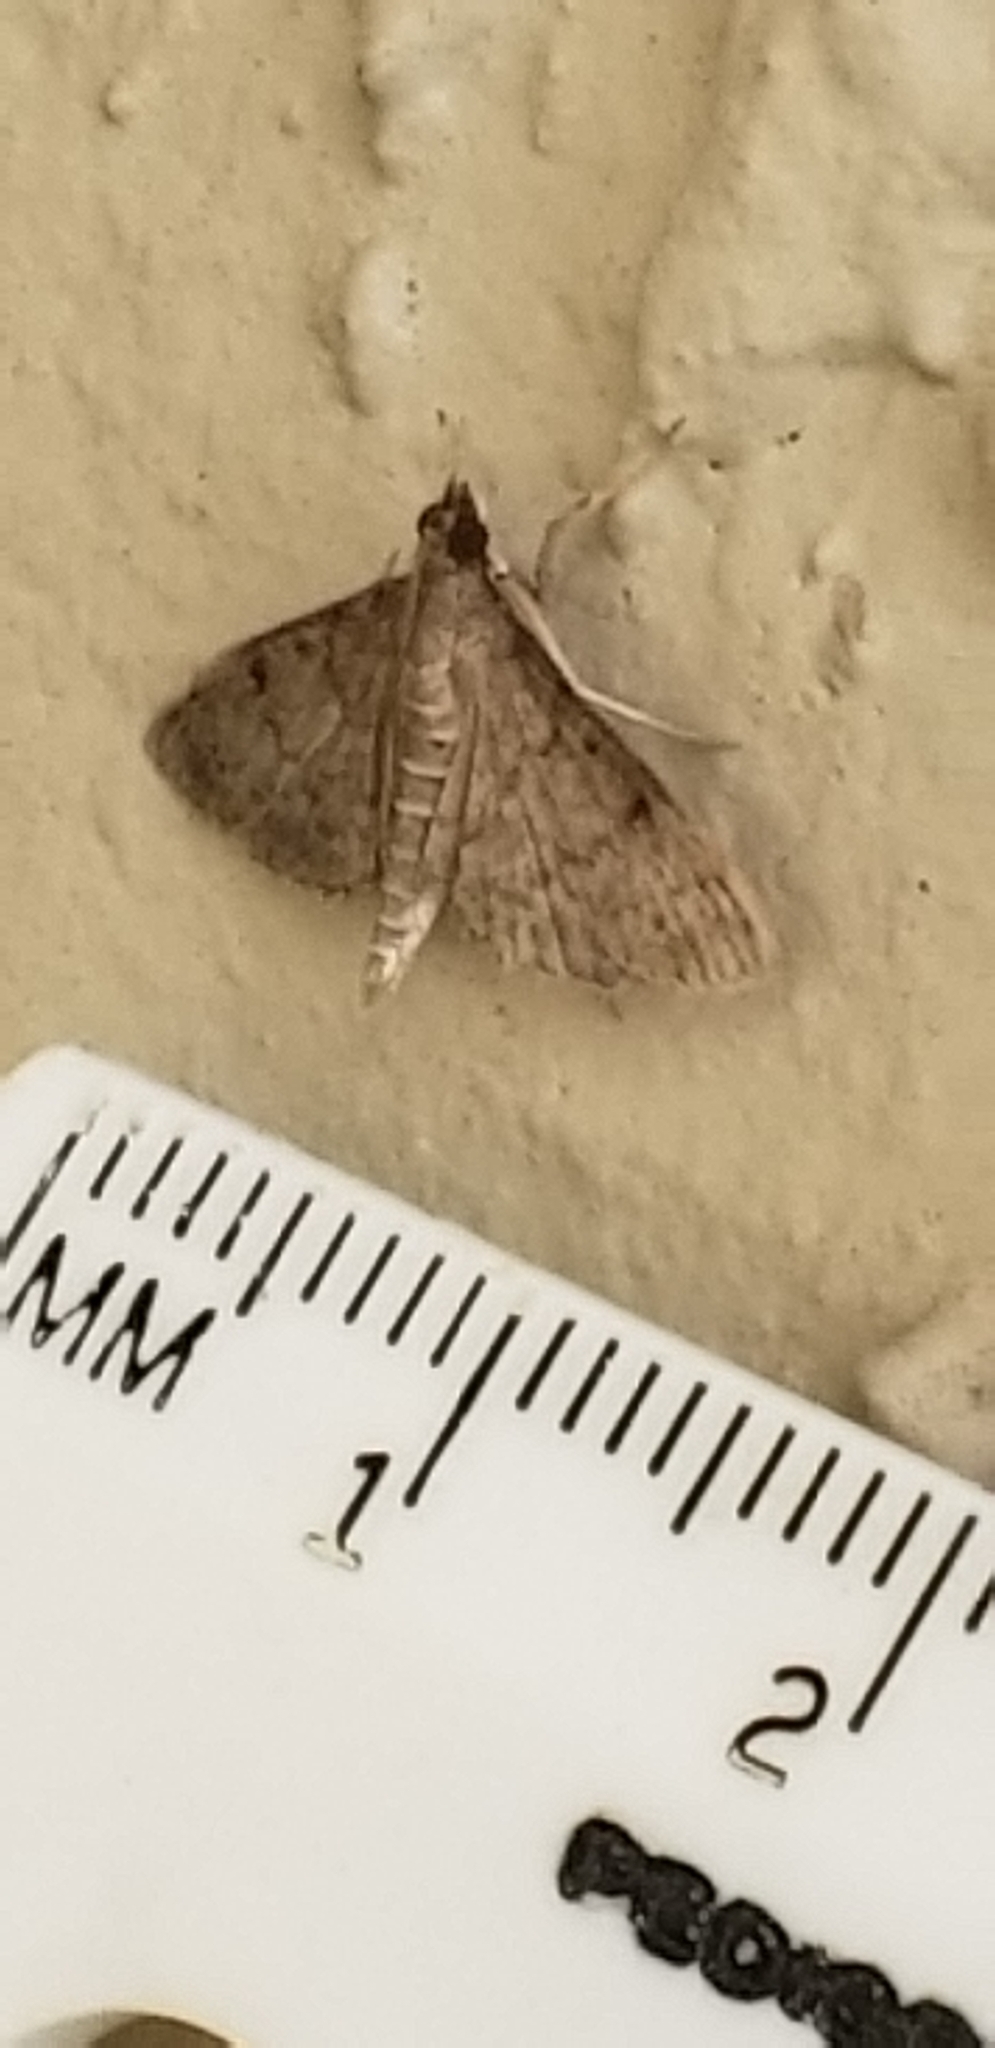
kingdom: Animalia
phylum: Arthropoda
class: Insecta
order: Lepidoptera
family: Crambidae
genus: Herpetogramma
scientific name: Herpetogramma phaeopteralis
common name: Dusky herpetogramma moth
